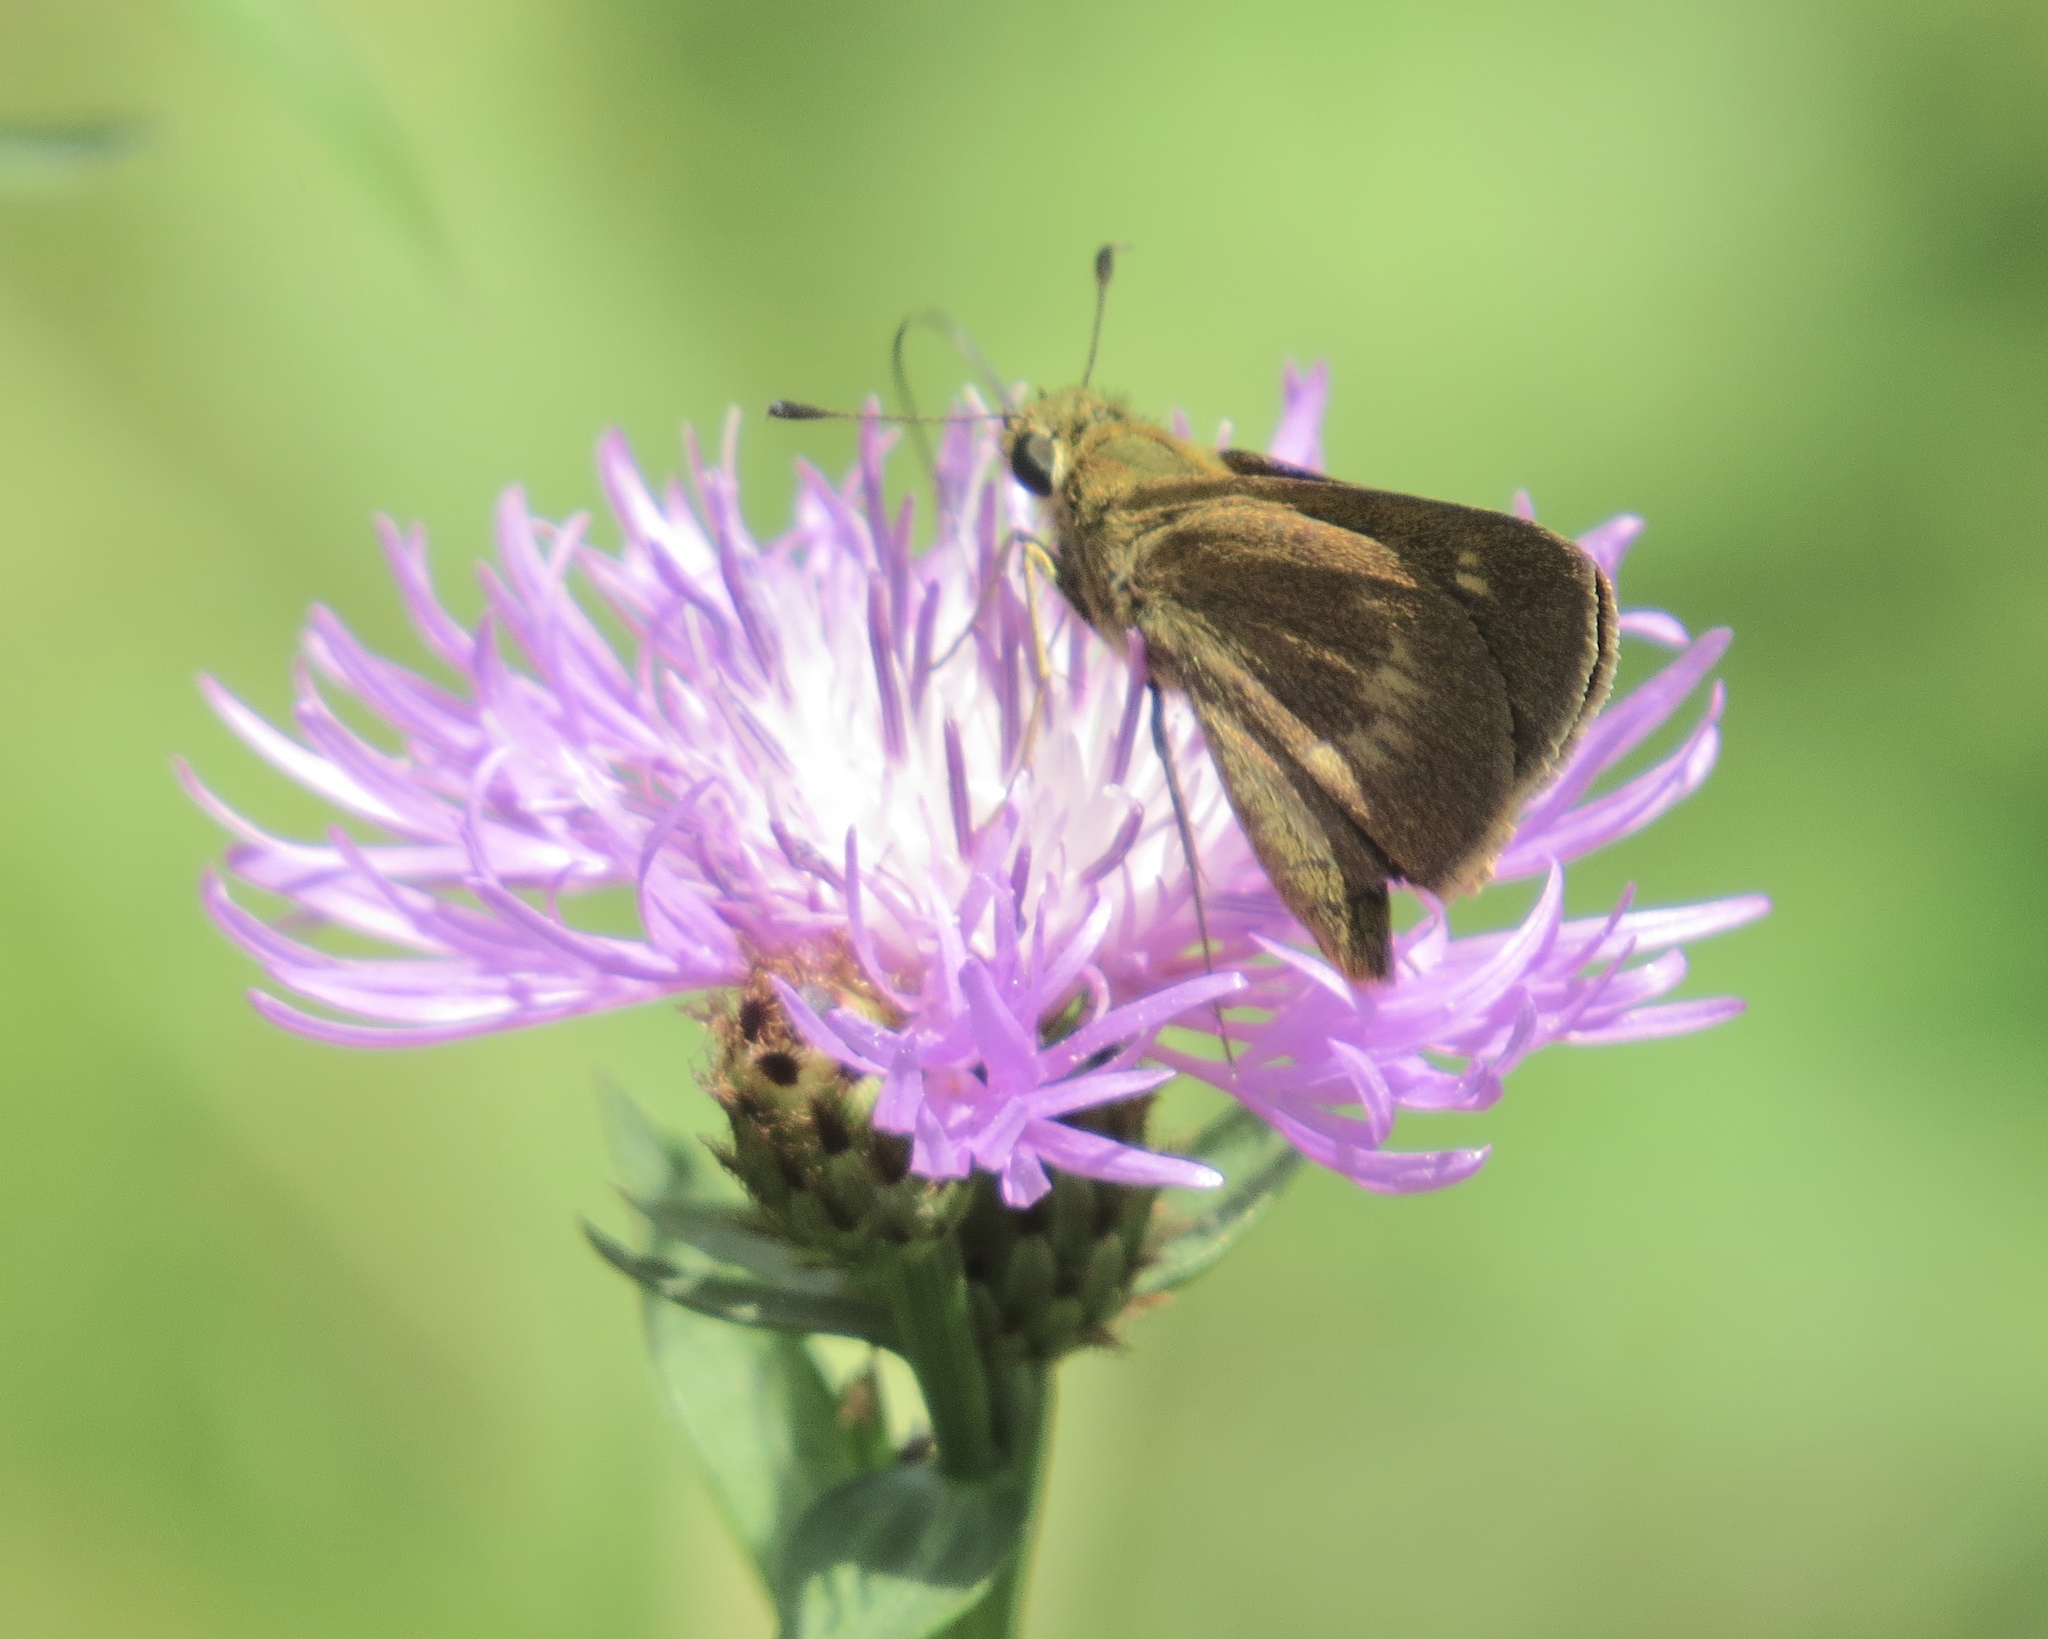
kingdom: Animalia
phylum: Arthropoda
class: Insecta
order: Lepidoptera
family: Hesperiidae
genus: Polites
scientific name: Polites egeremet
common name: Northern broken-dash
